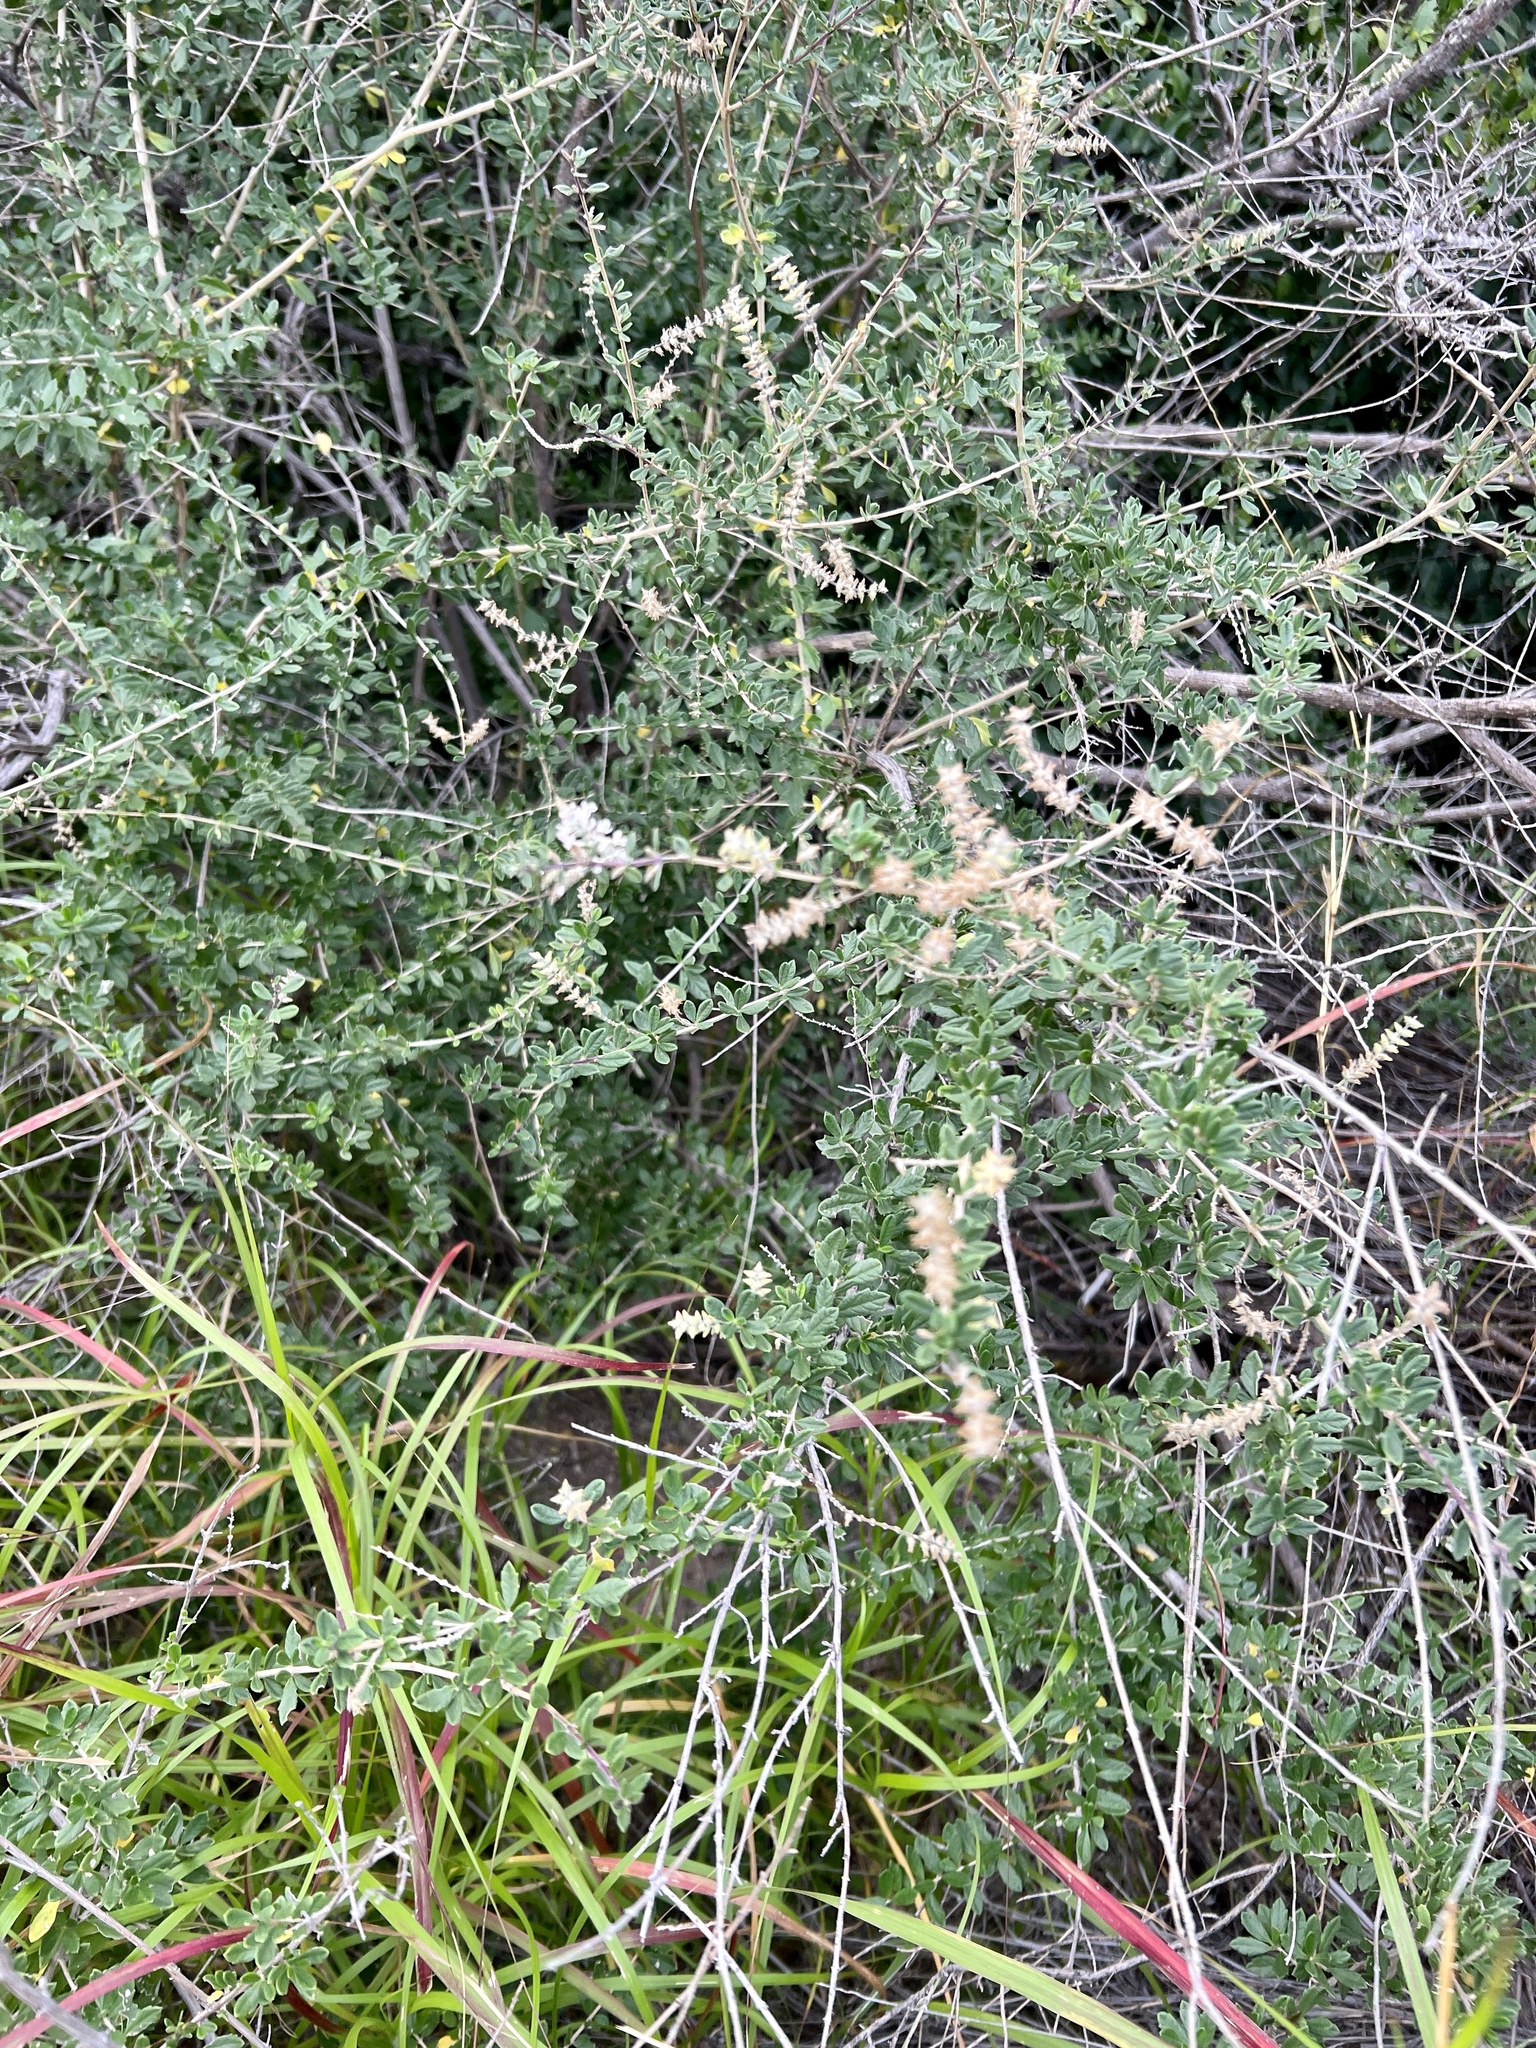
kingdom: Plantae
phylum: Tracheophyta
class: Magnoliopsida
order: Lamiales
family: Verbenaceae
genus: Aloysia
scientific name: Aloysia gratissima
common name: Common bee-brush
